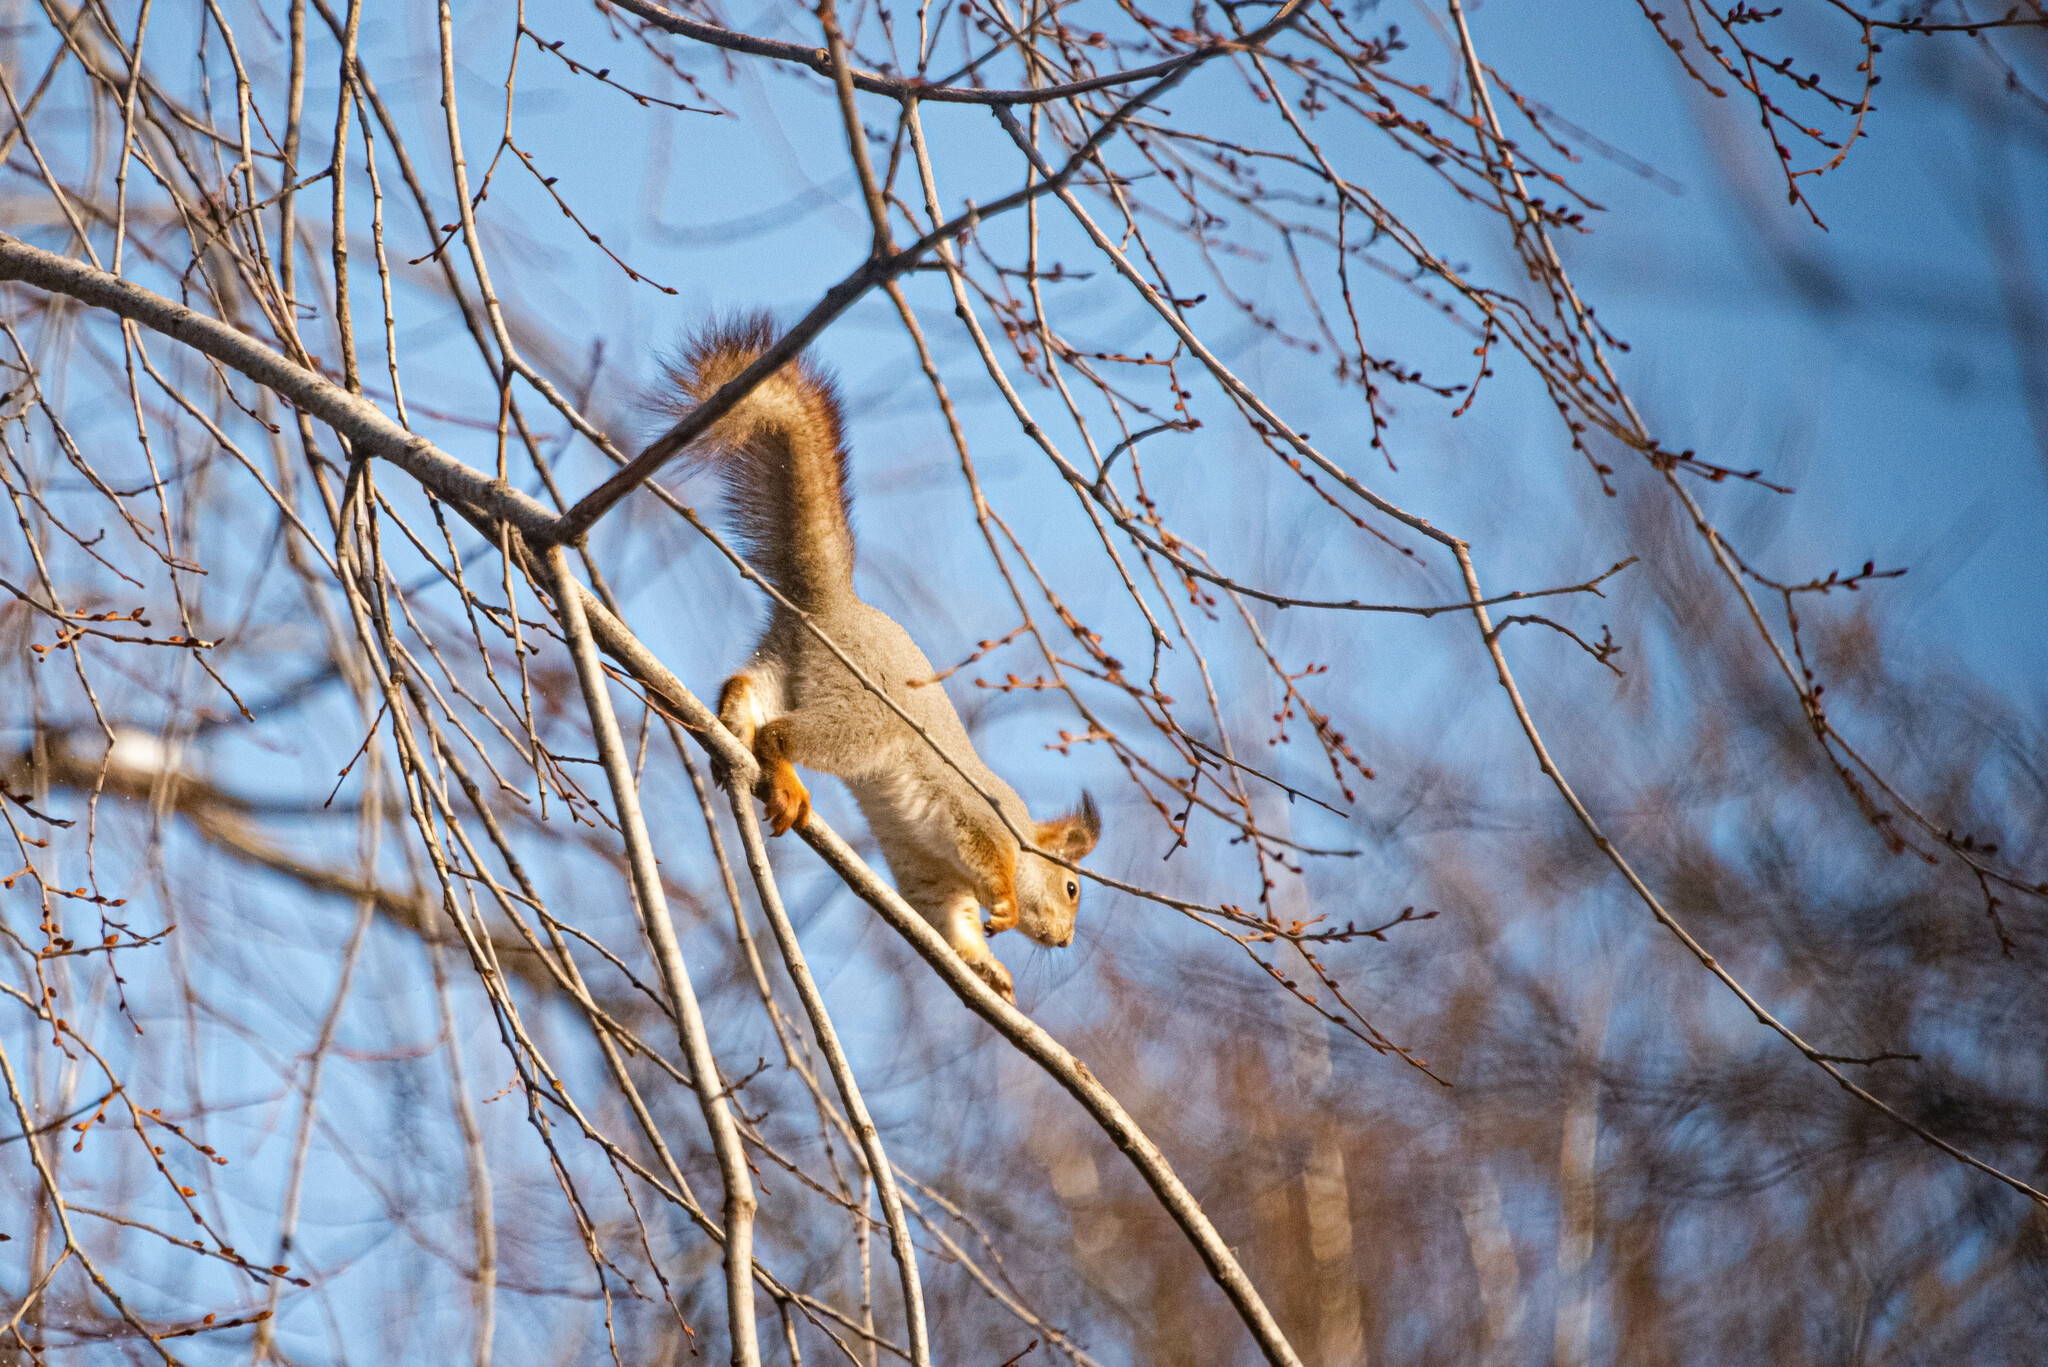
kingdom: Animalia
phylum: Chordata
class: Mammalia
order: Rodentia
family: Sciuridae
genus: Sciurus
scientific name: Sciurus vulgaris
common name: Eurasian red squirrel
